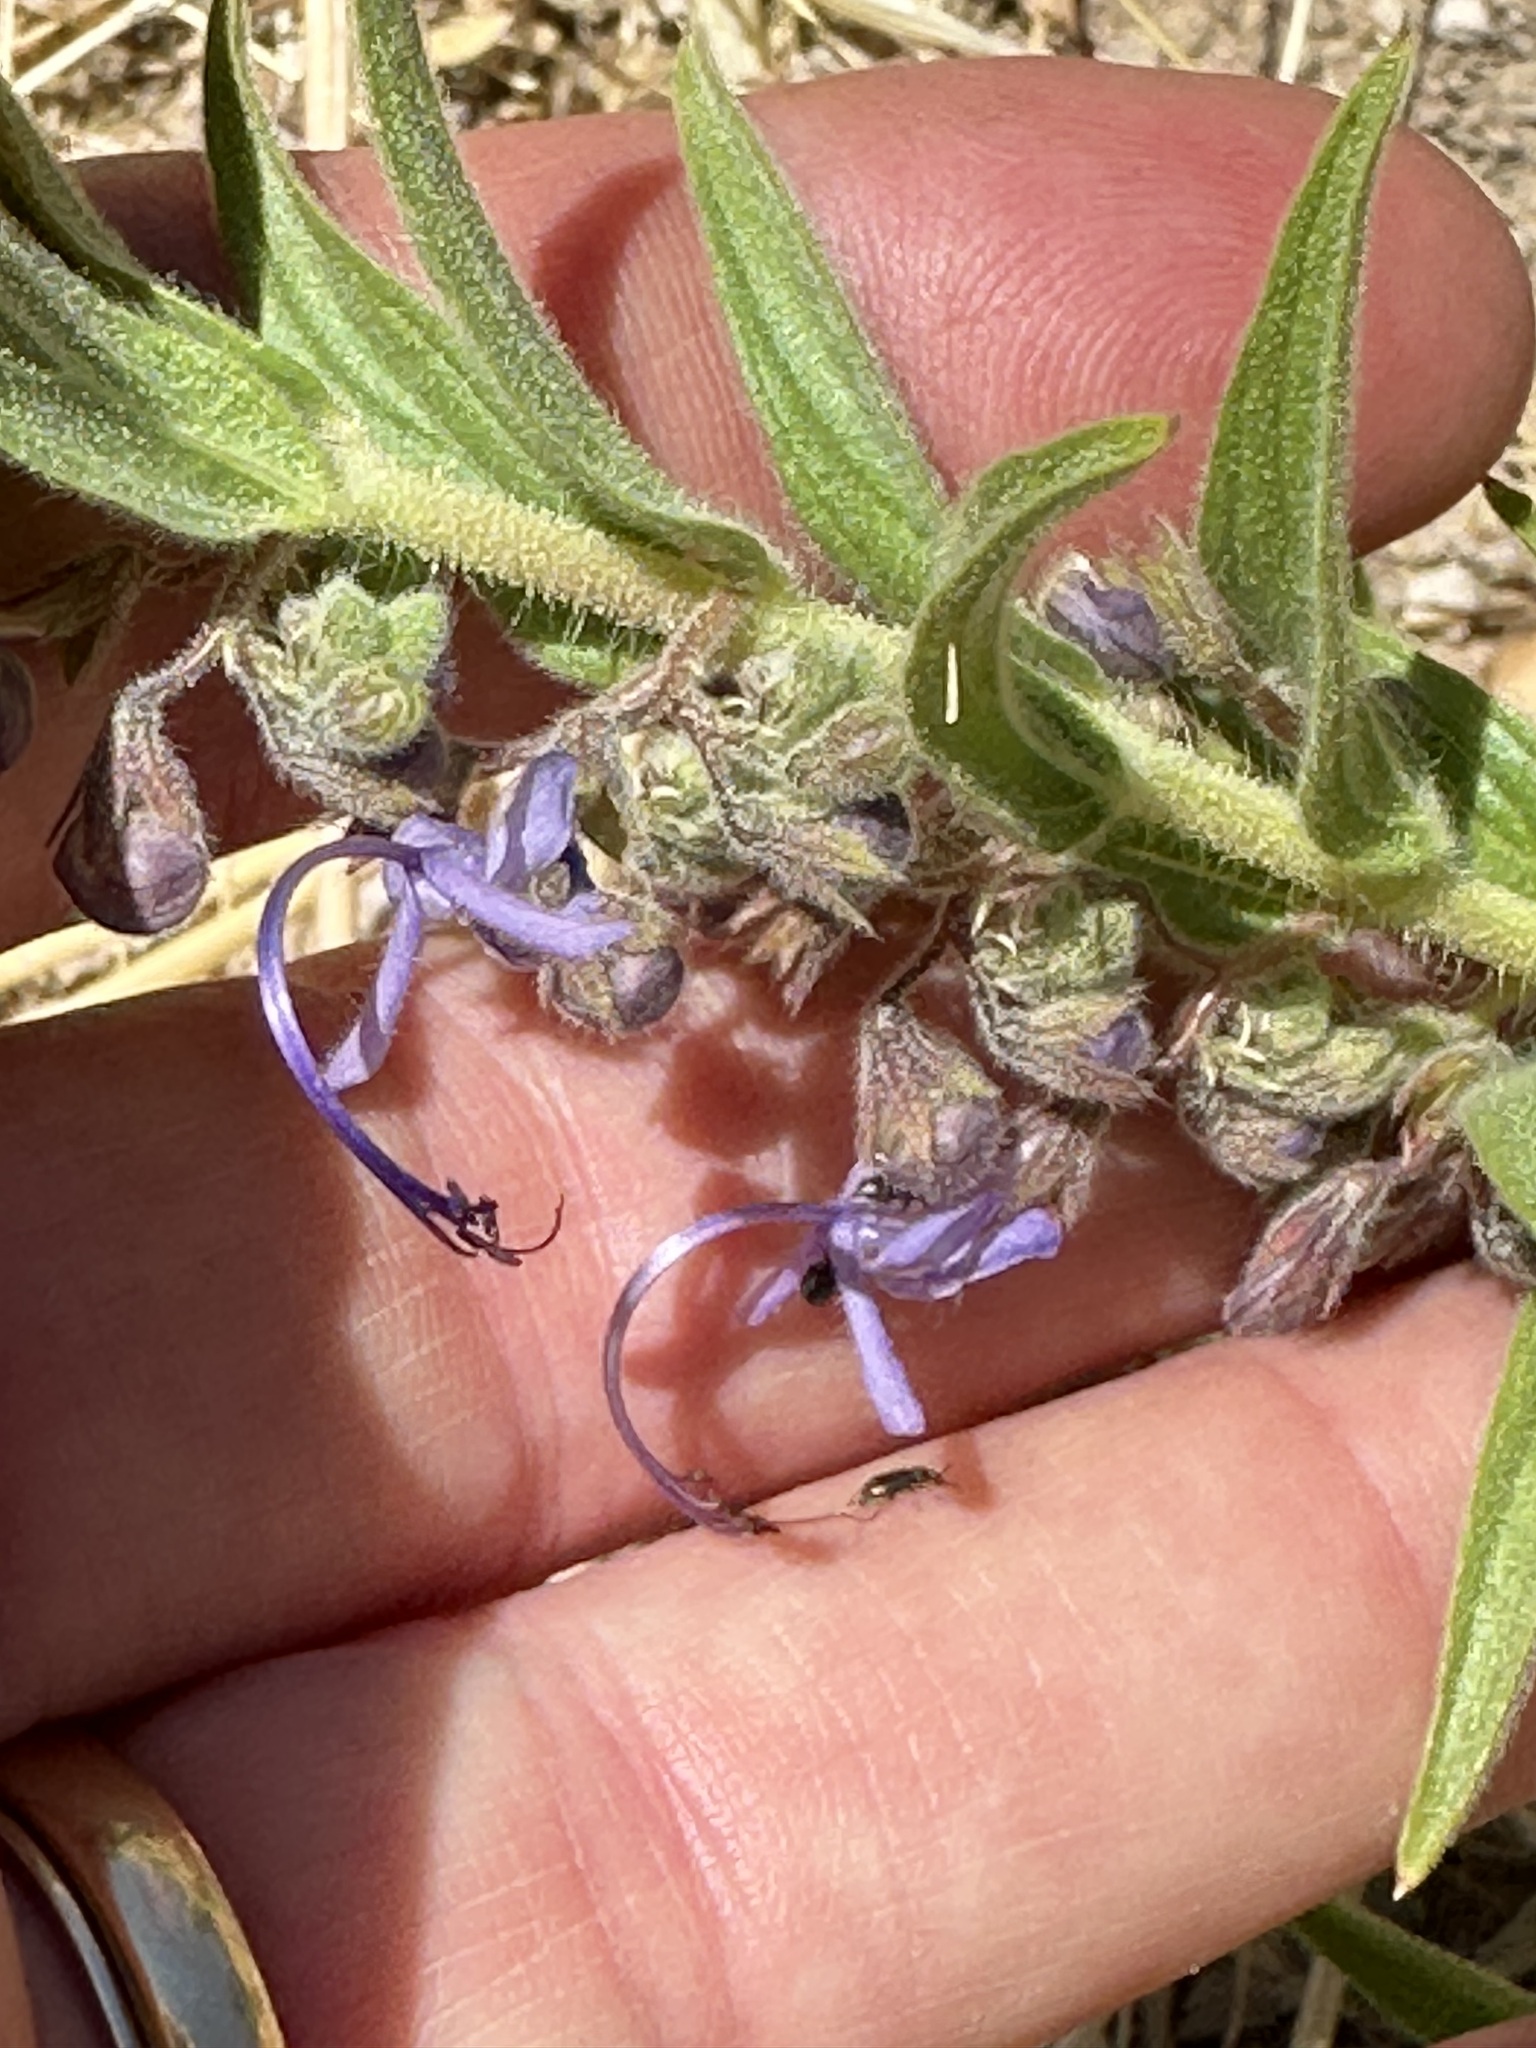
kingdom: Plantae
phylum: Tracheophyta
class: Magnoliopsida
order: Lamiales
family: Lamiaceae
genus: Trichostema
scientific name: Trichostema lanceolatum
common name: Vinegar-weed
